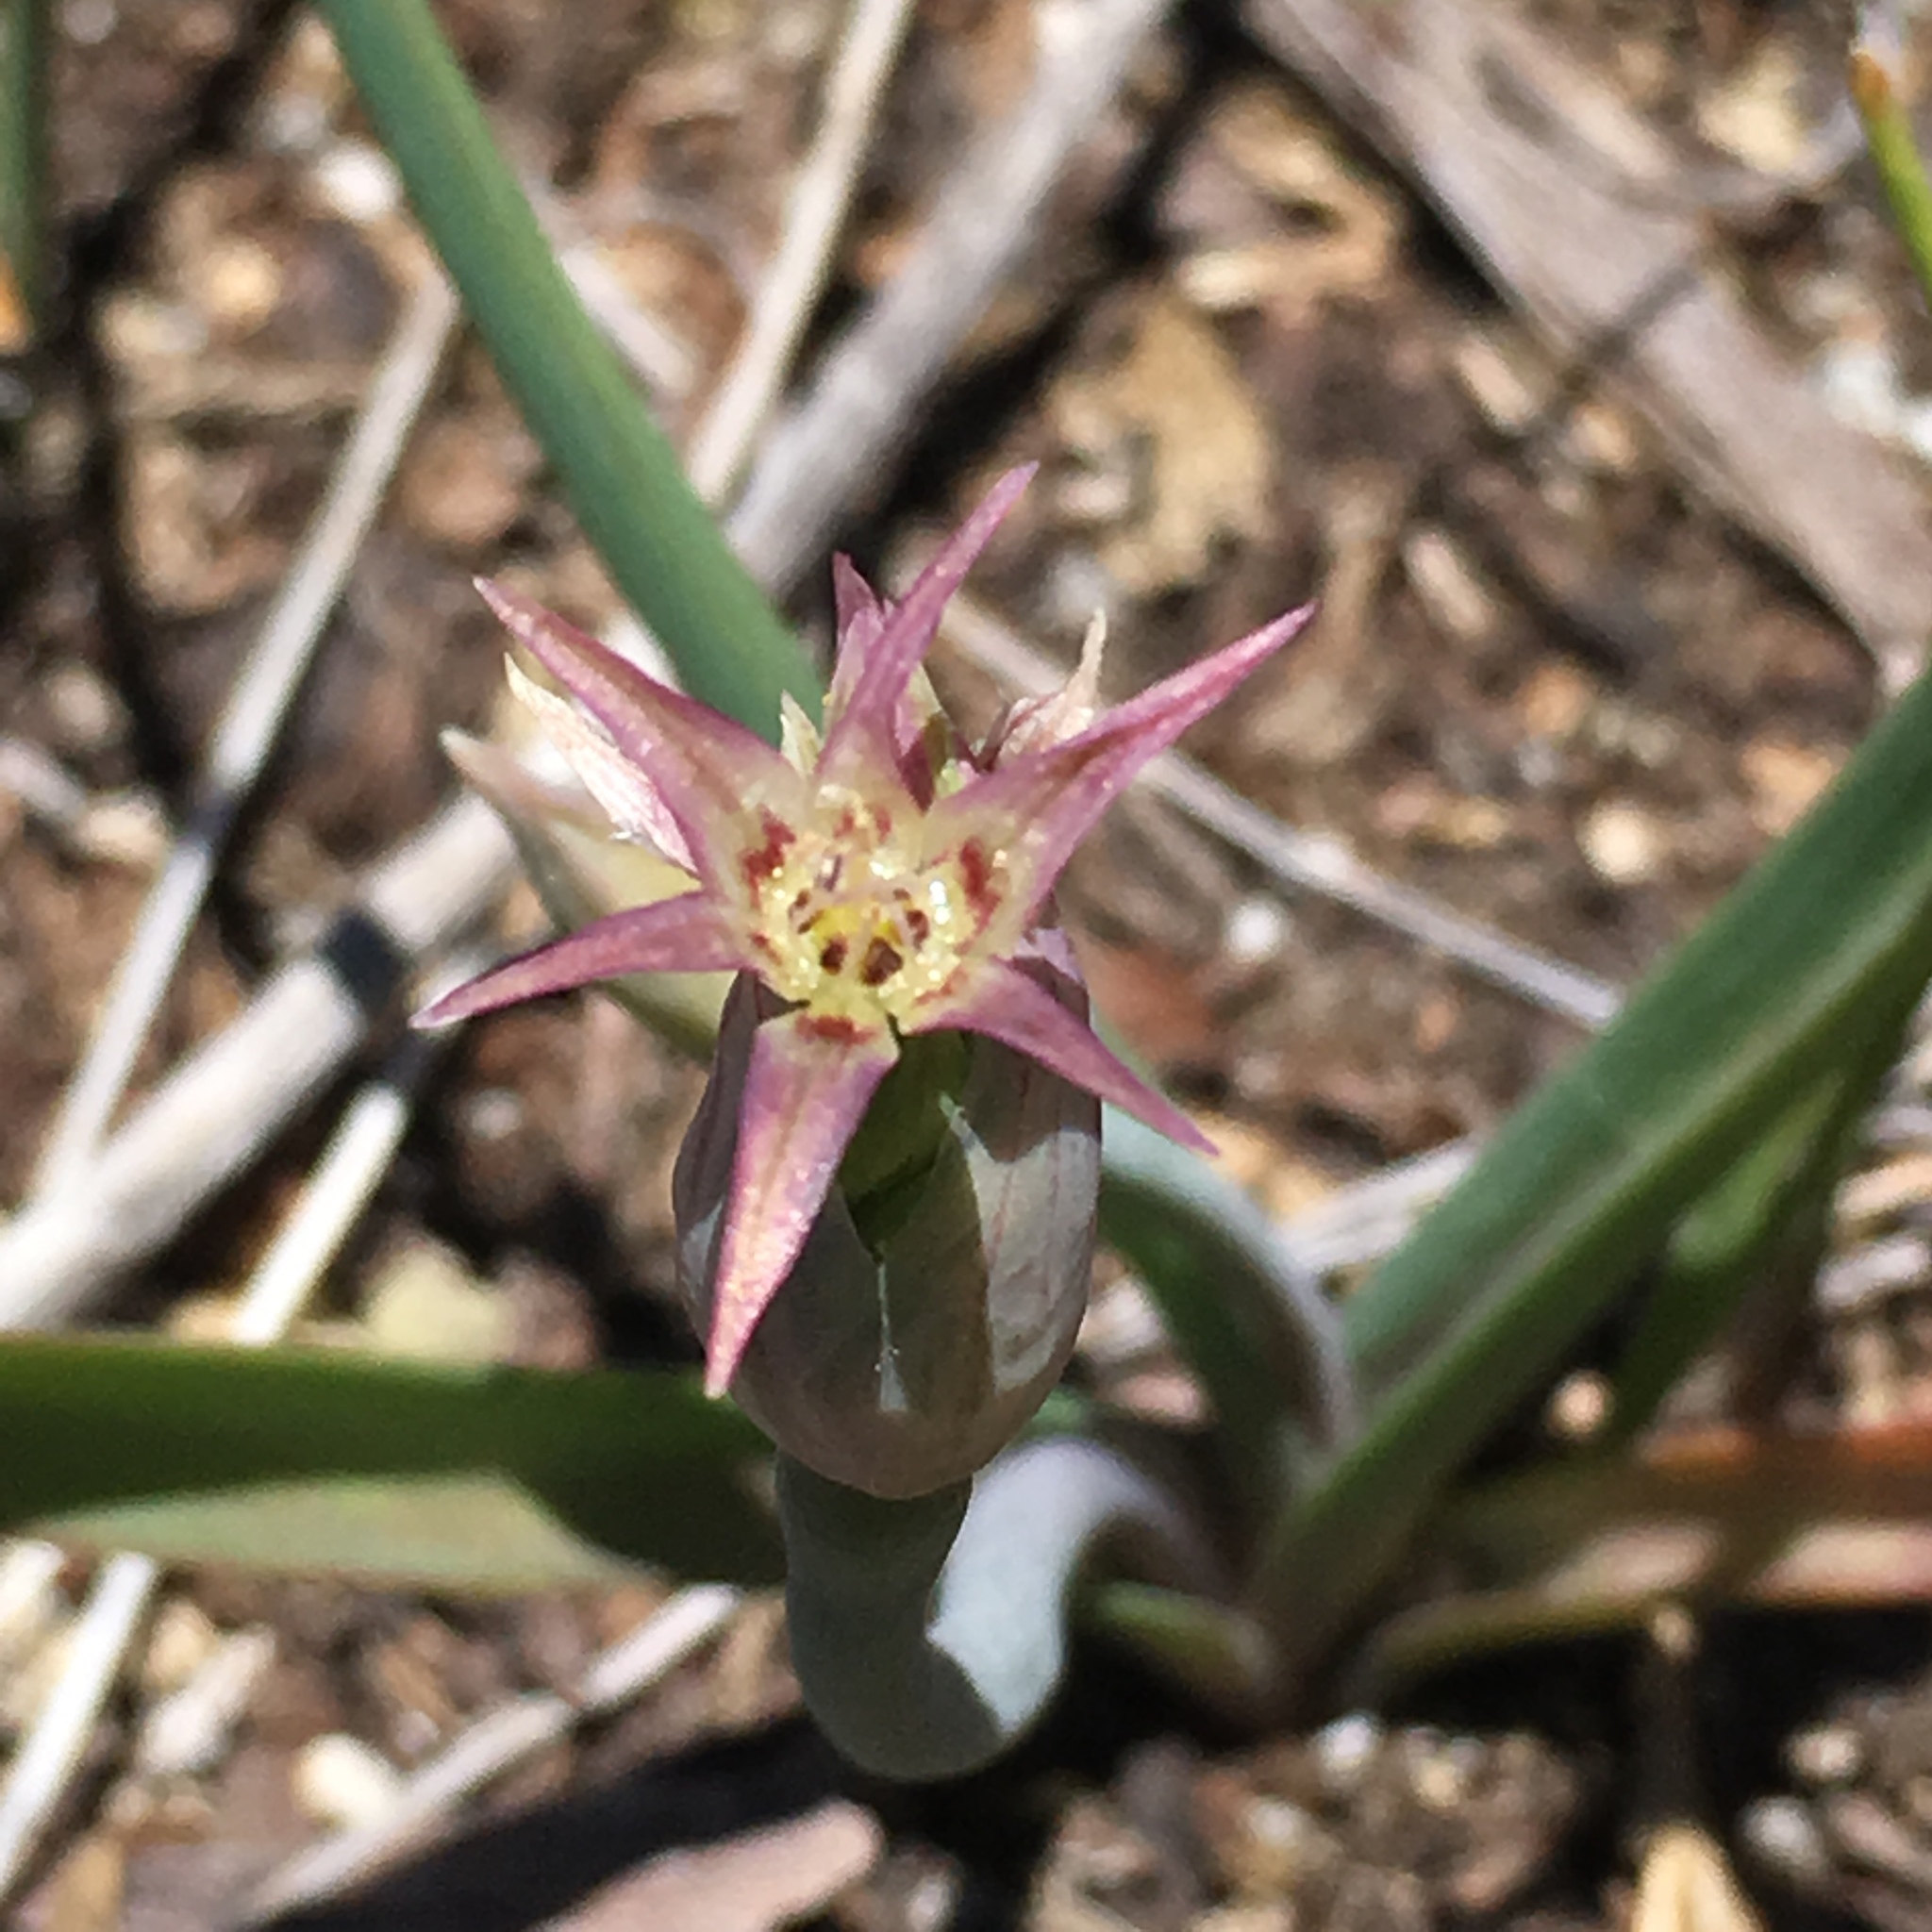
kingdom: Plantae
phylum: Tracheophyta
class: Liliopsida
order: Asparagales
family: Amaryllidaceae
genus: Allium
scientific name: Allium campanulatum
